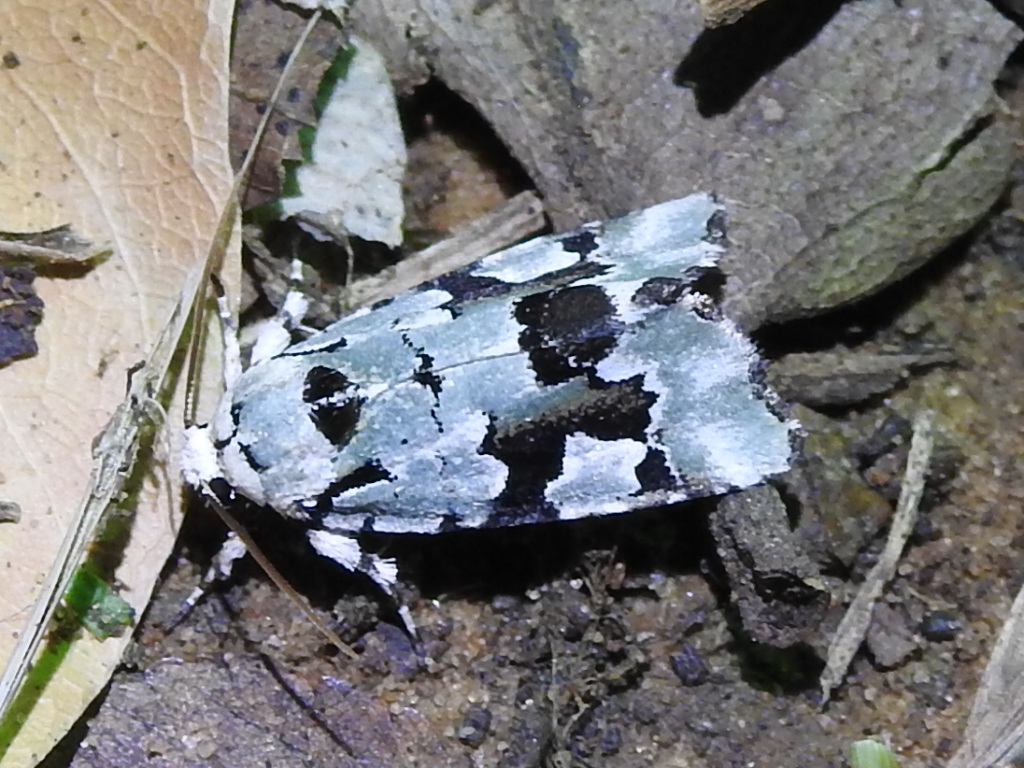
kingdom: Animalia
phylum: Arthropoda
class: Insecta
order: Lepidoptera
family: Noctuidae
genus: Emarginea
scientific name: Emarginea percara
